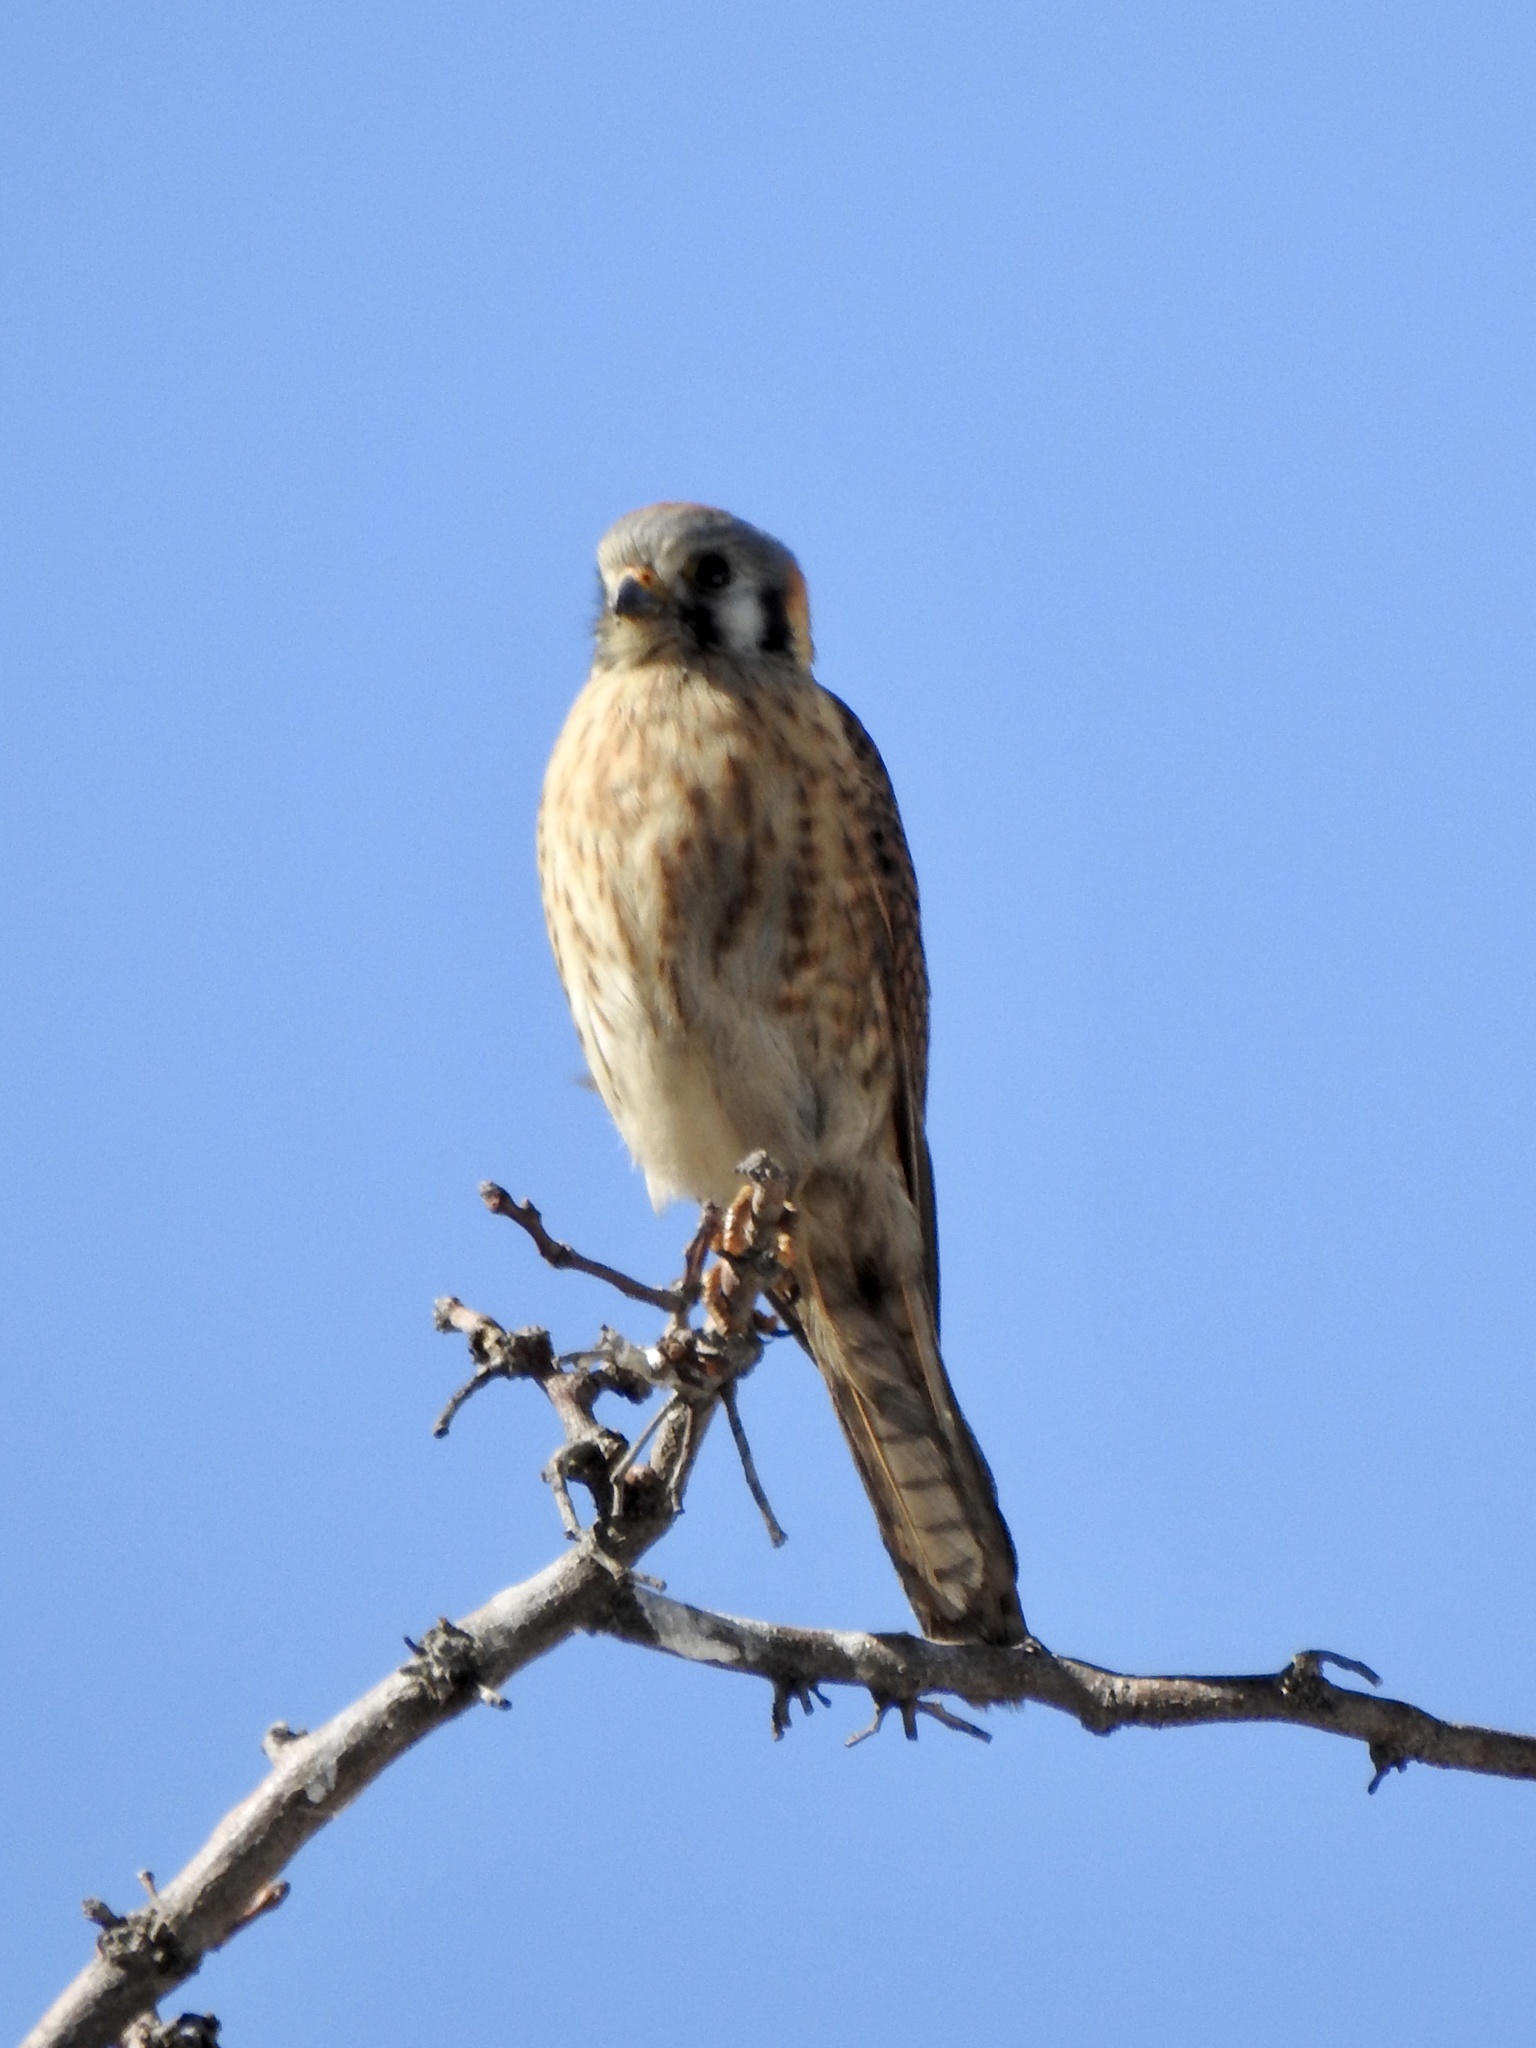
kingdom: Animalia
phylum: Chordata
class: Aves
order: Falconiformes
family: Falconidae
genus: Falco
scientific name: Falco sparverius
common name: American kestrel
